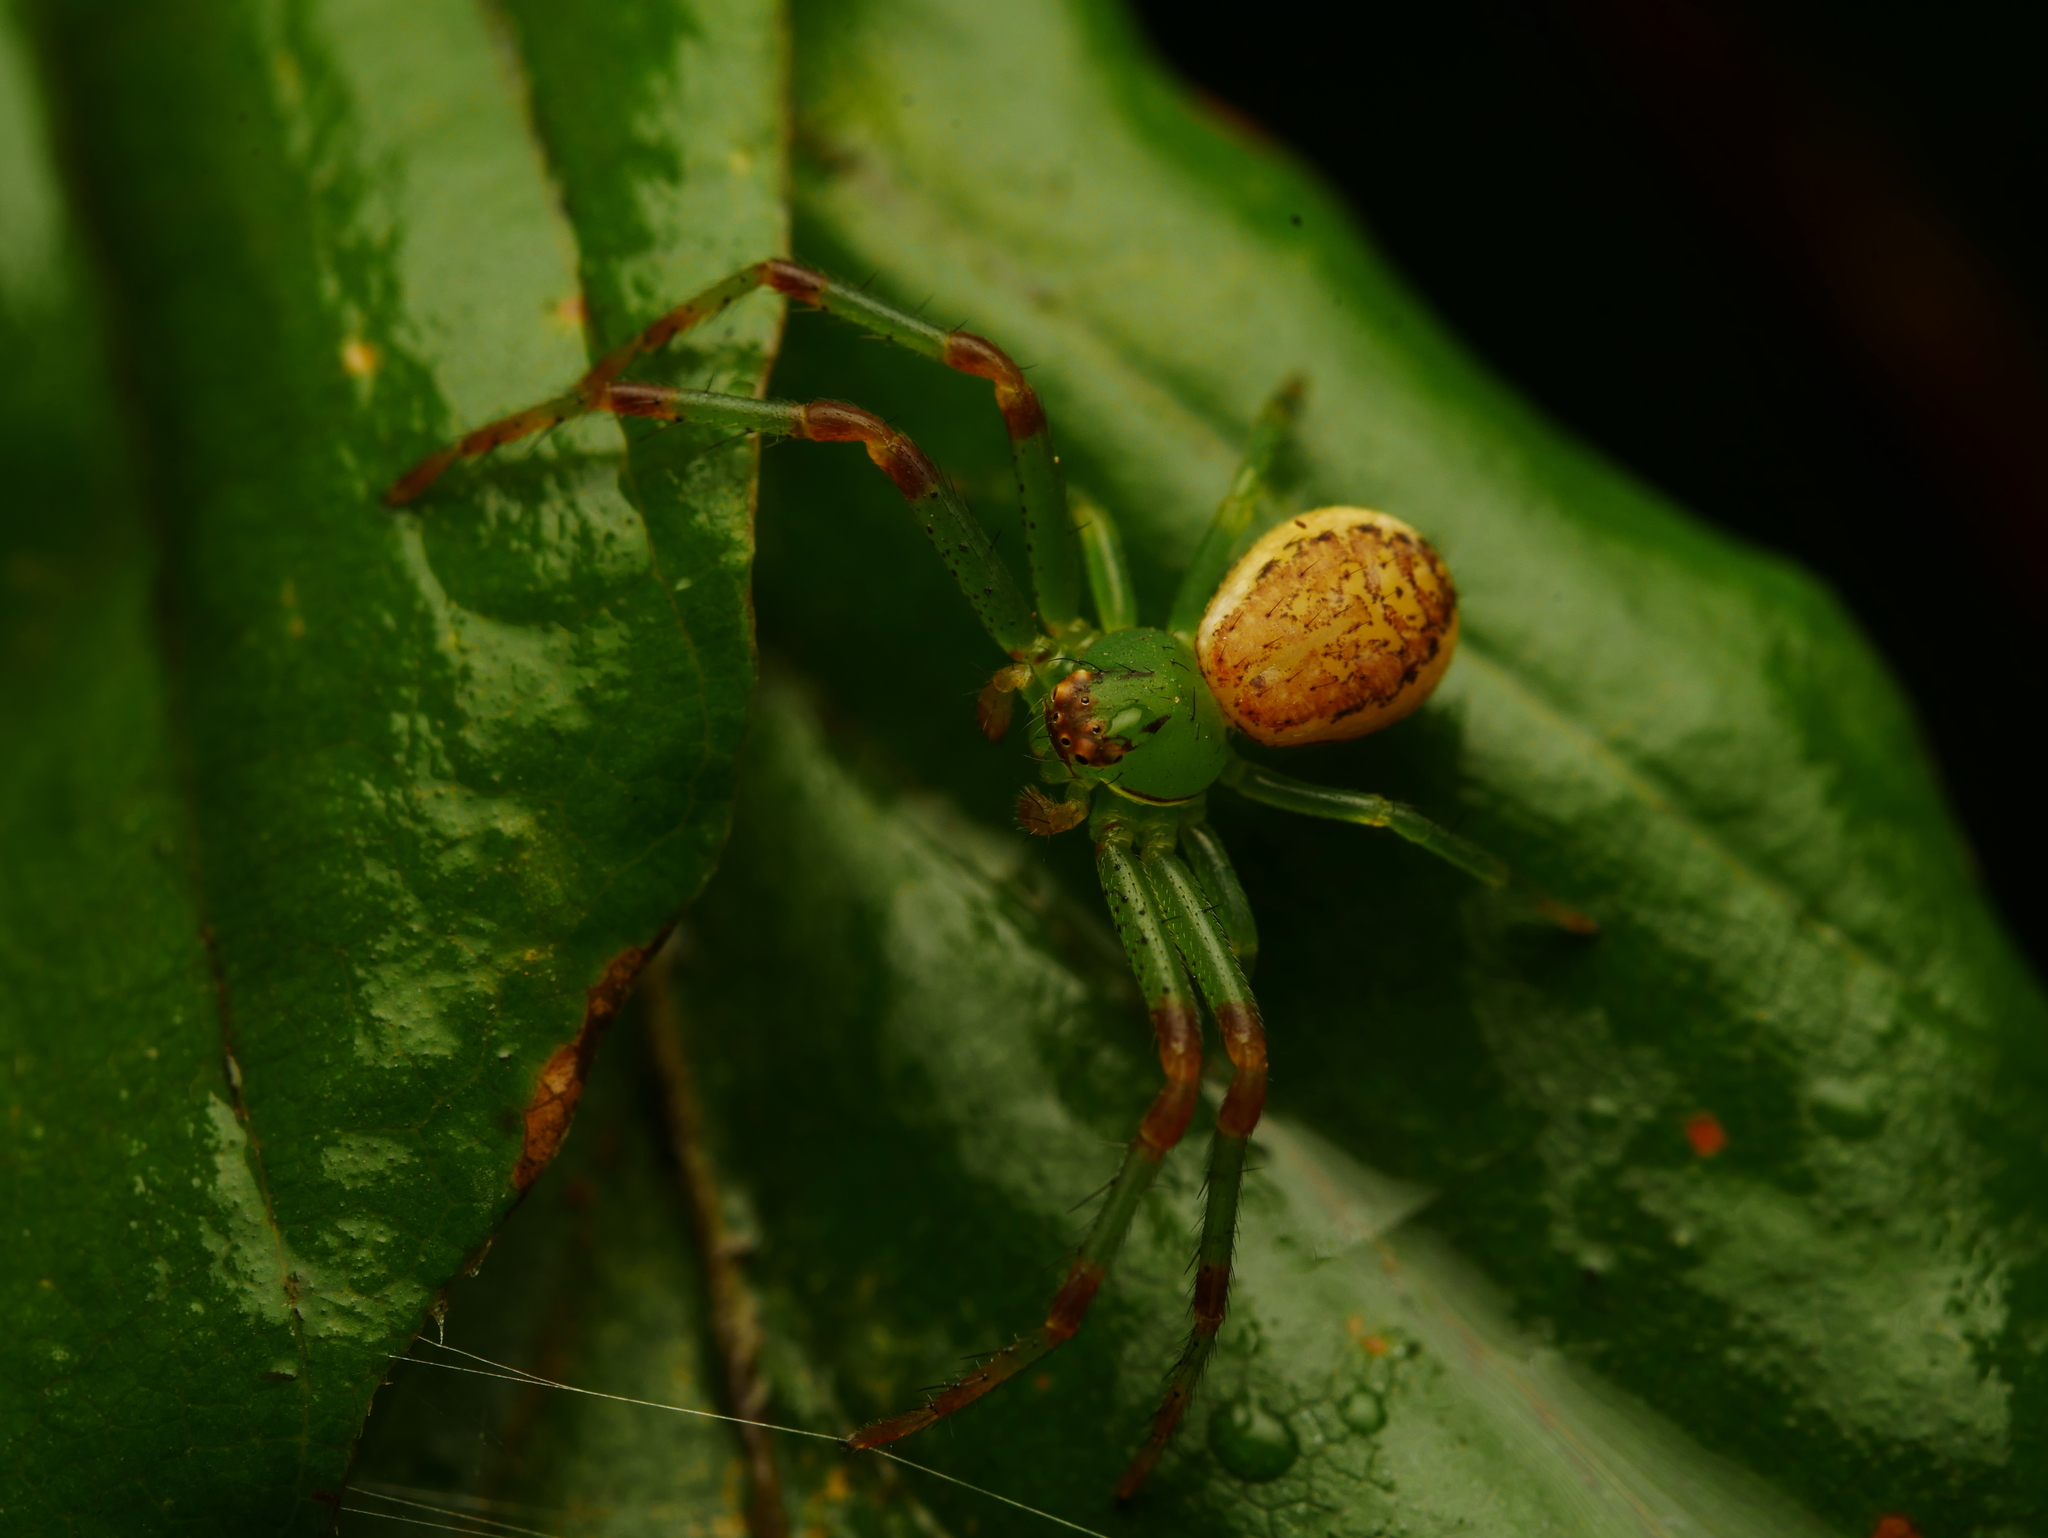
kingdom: Animalia
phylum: Arthropoda
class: Arachnida
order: Araneae
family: Thomisidae
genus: Diaea
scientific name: Diaea dorsata
